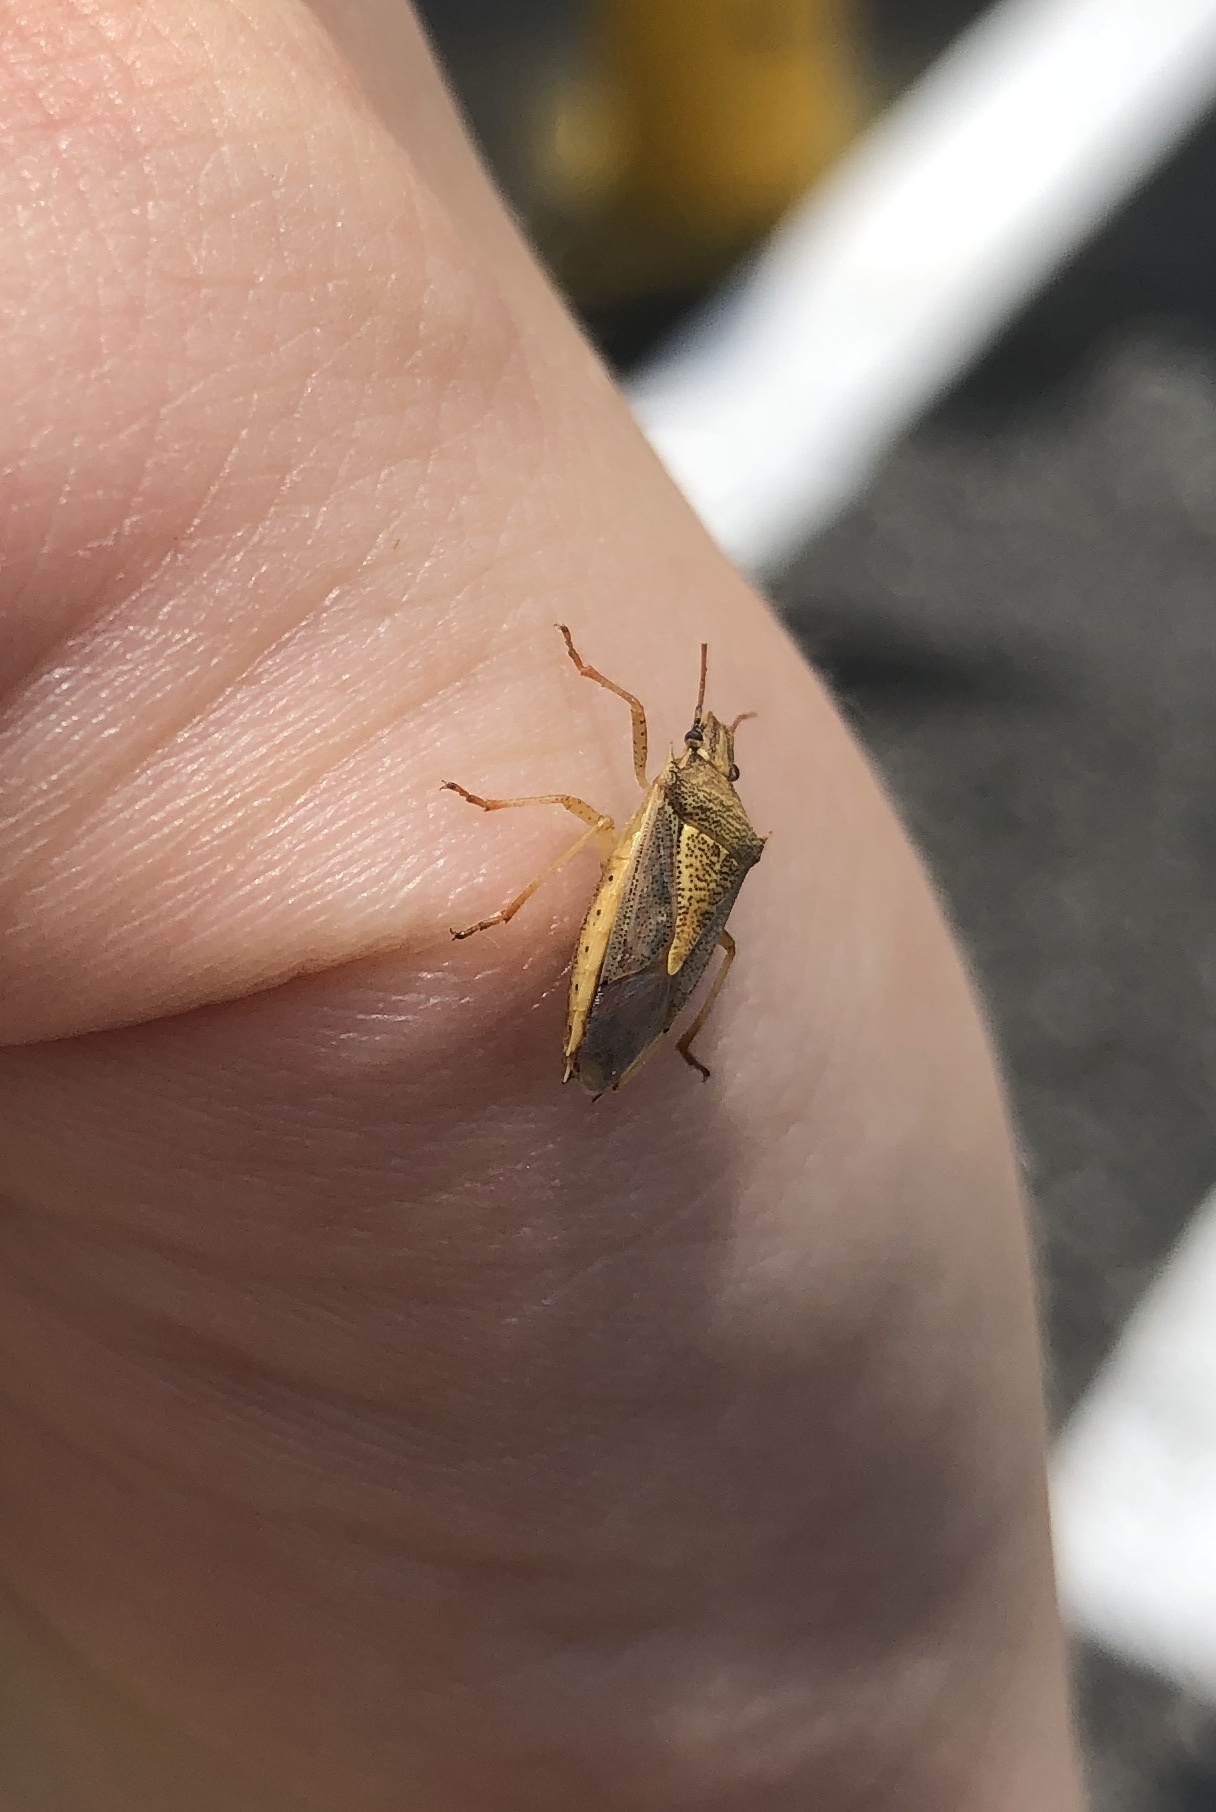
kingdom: Animalia
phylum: Arthropoda
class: Insecta
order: Hemiptera
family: Pentatomidae
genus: Oebalus
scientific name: Oebalus pugnax
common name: Rice stink bug
